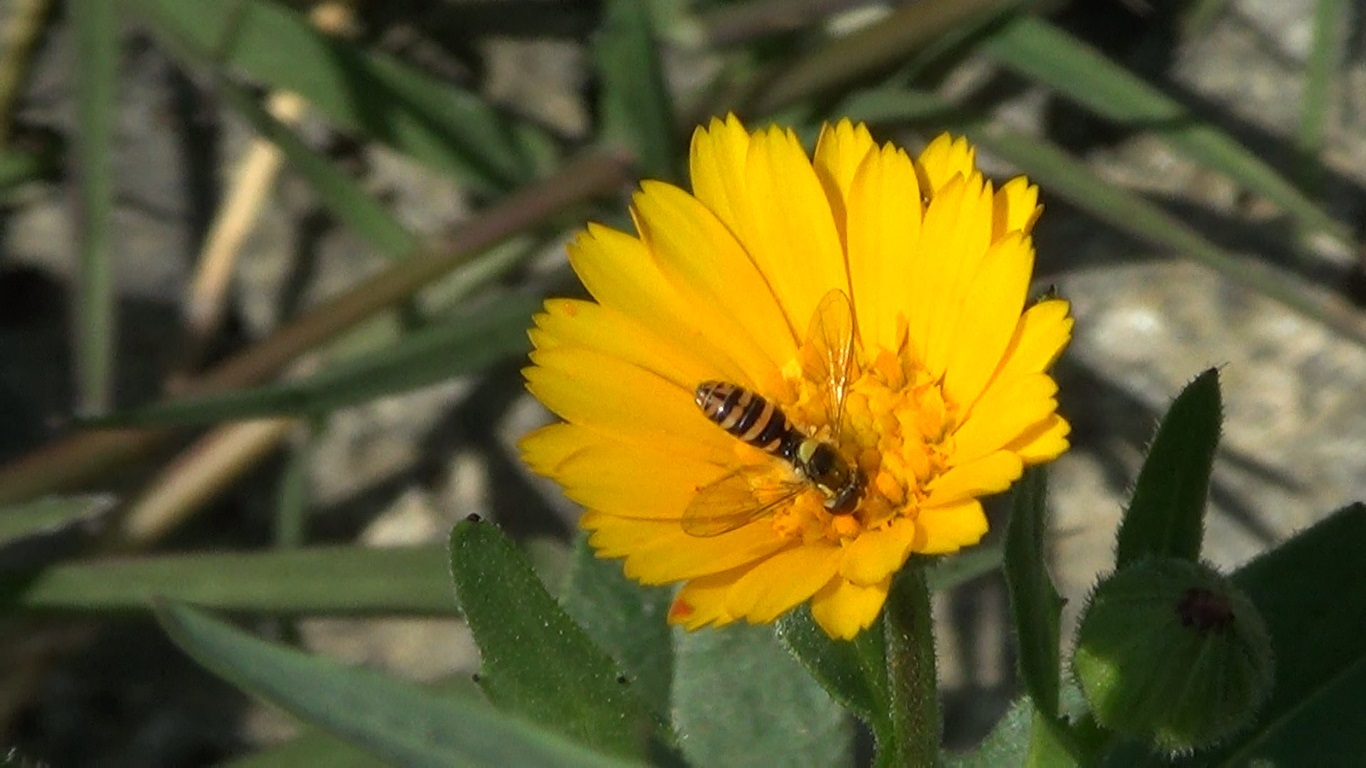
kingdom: Animalia
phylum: Arthropoda
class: Insecta
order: Diptera
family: Syrphidae
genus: Sphaerophoria
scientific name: Sphaerophoria rueppellii
